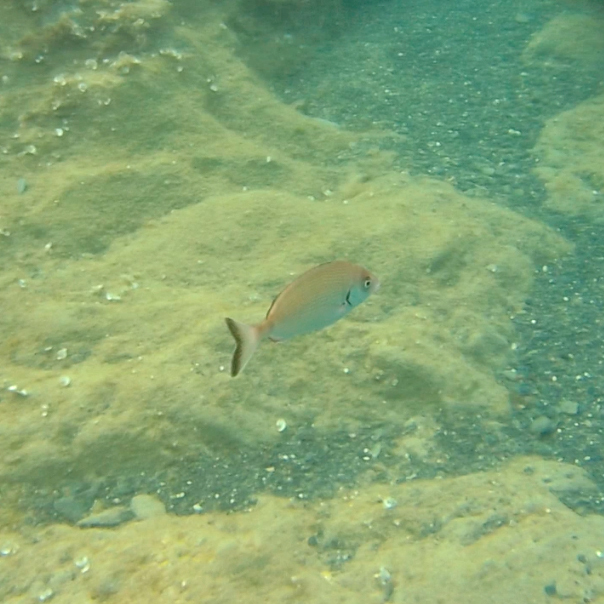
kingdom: Animalia
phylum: Chordata
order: Perciformes
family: Sparidae
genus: Diplodus
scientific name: Diplodus sargus
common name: White seabream
